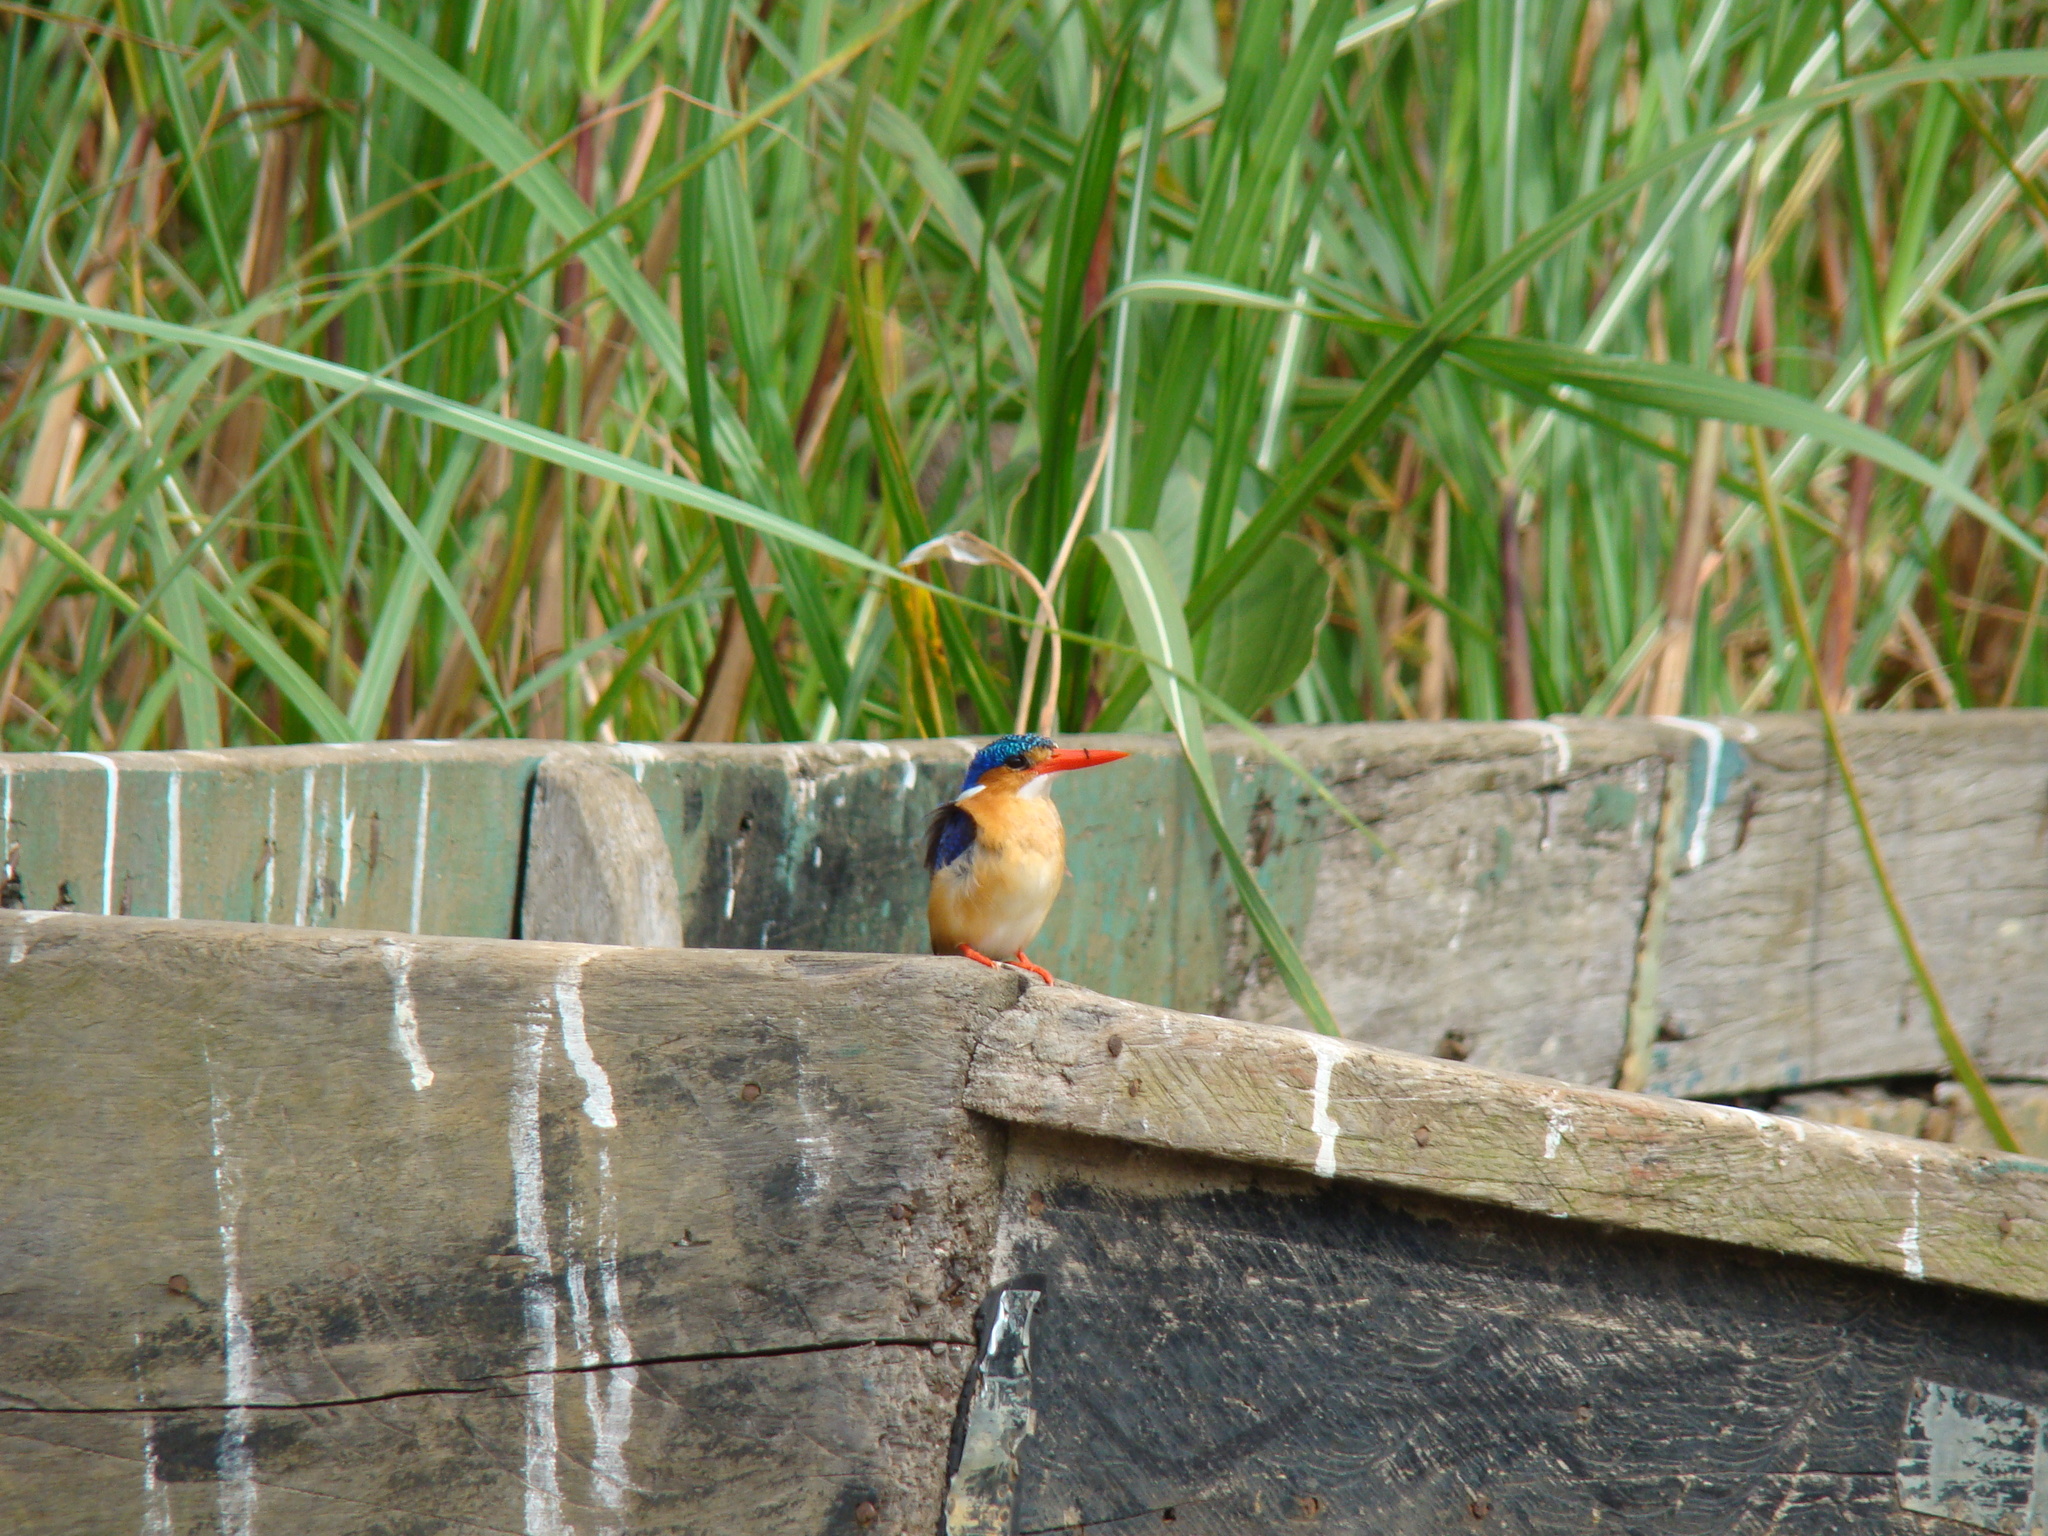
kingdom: Animalia
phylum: Chordata
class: Aves
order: Coraciiformes
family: Alcedinidae
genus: Corythornis
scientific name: Corythornis cristatus
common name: Malachite kingfisher
